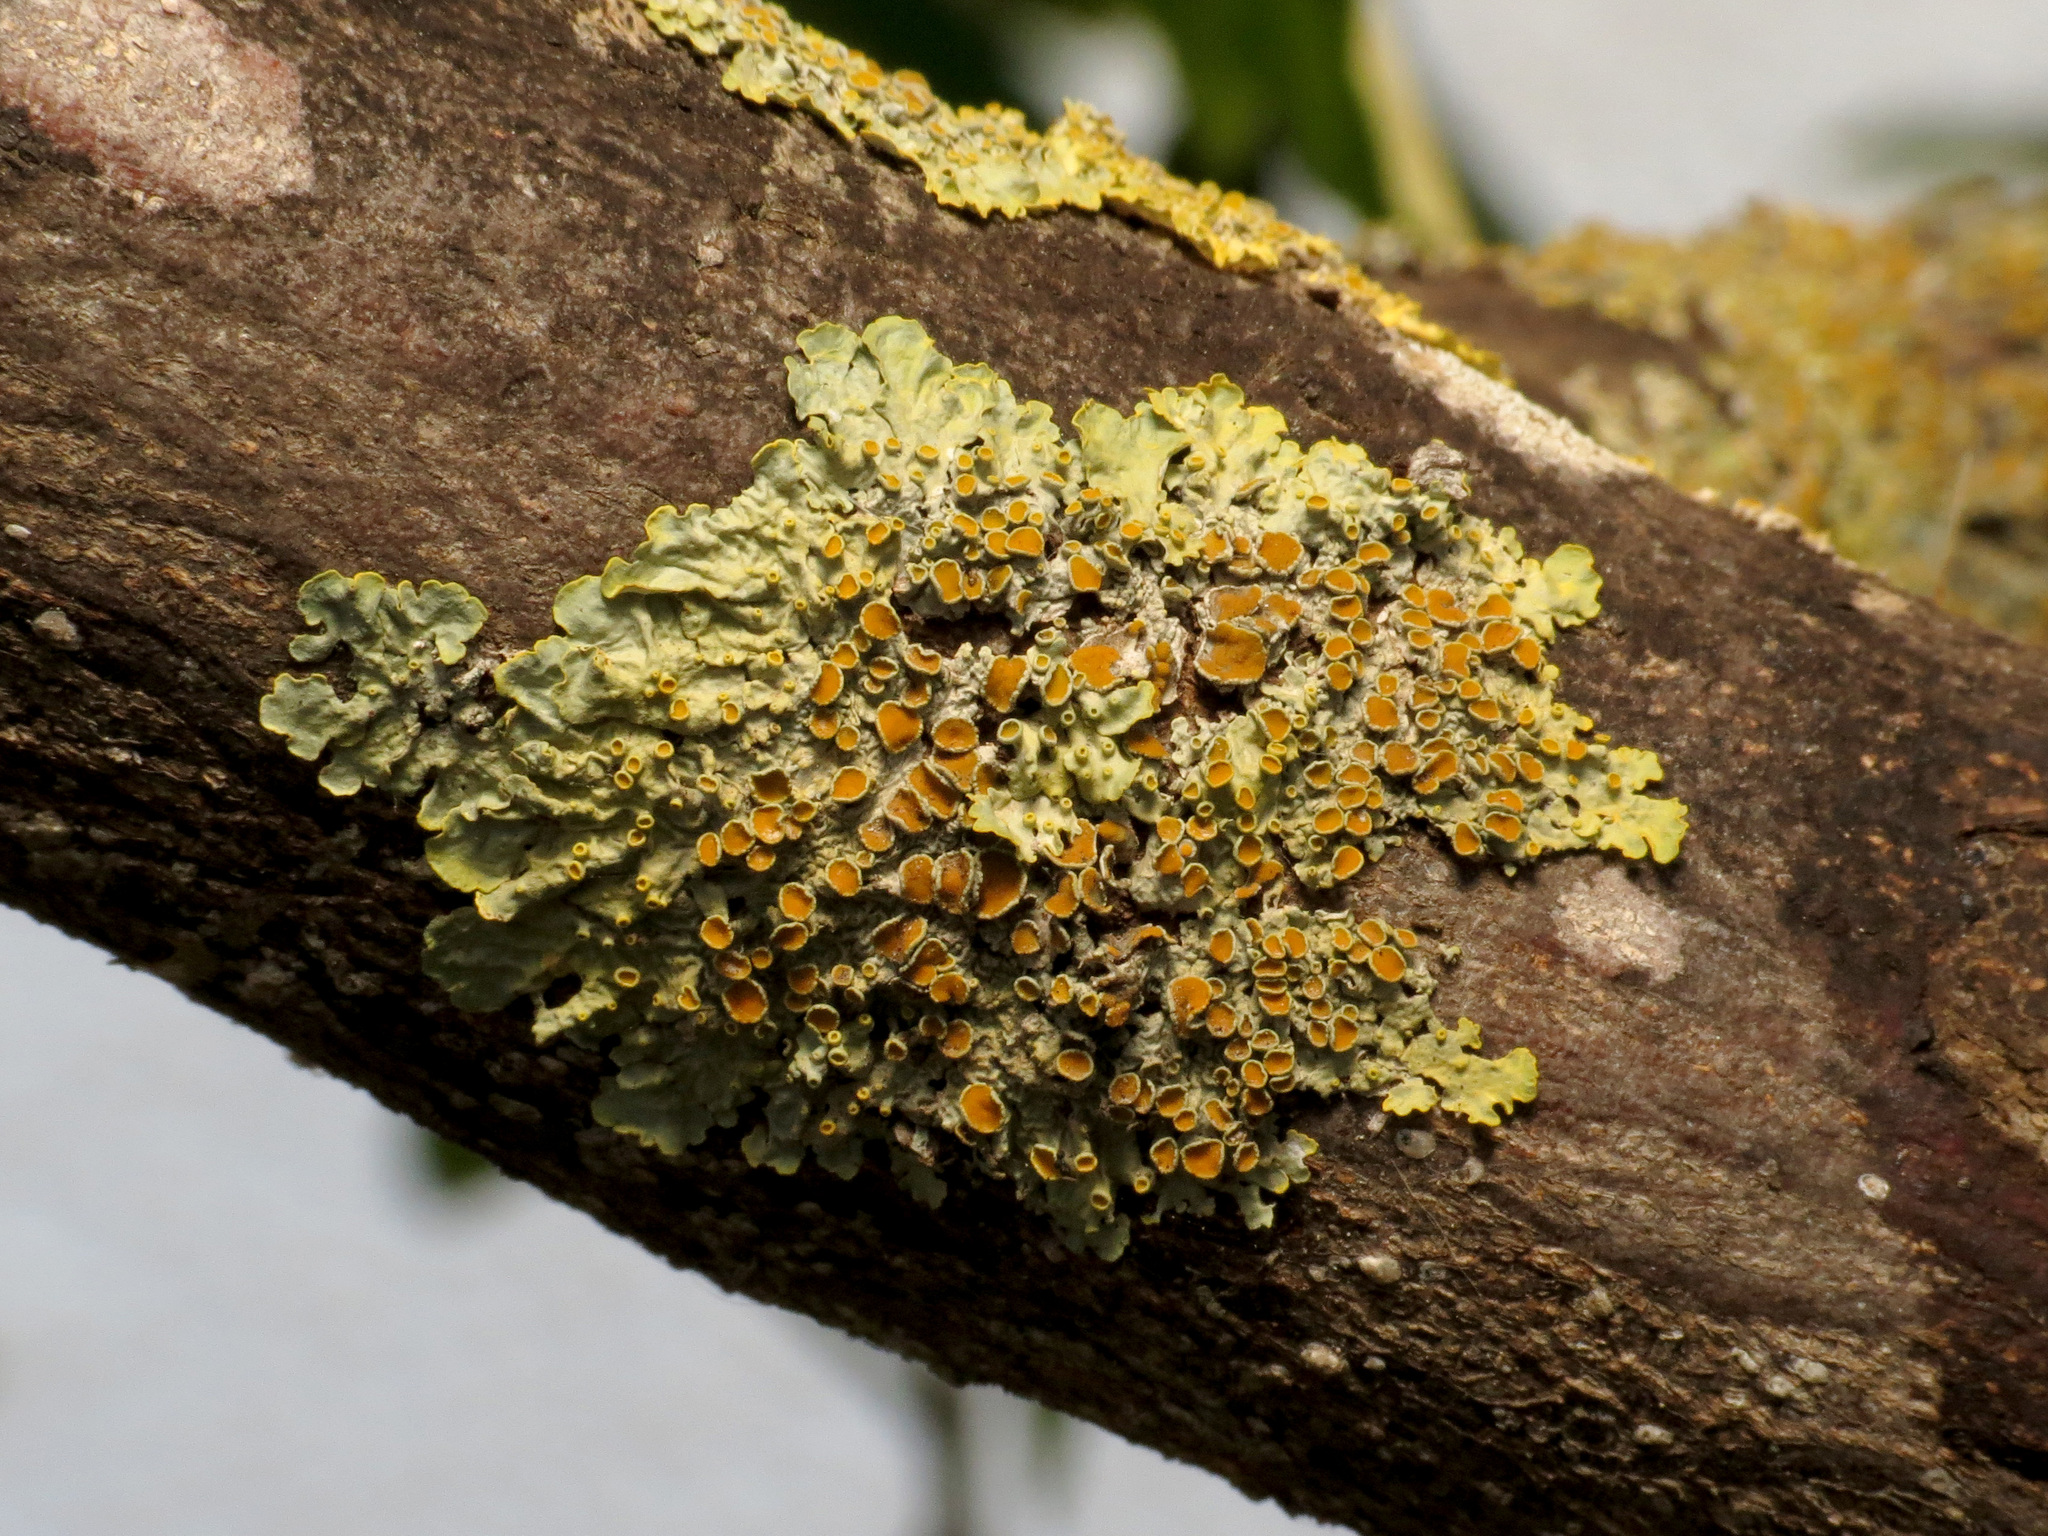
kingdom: Fungi
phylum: Ascomycota
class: Lecanoromycetes
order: Teloschistales
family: Teloschistaceae
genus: Xanthoria
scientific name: Xanthoria parietina
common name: Common orange lichen
